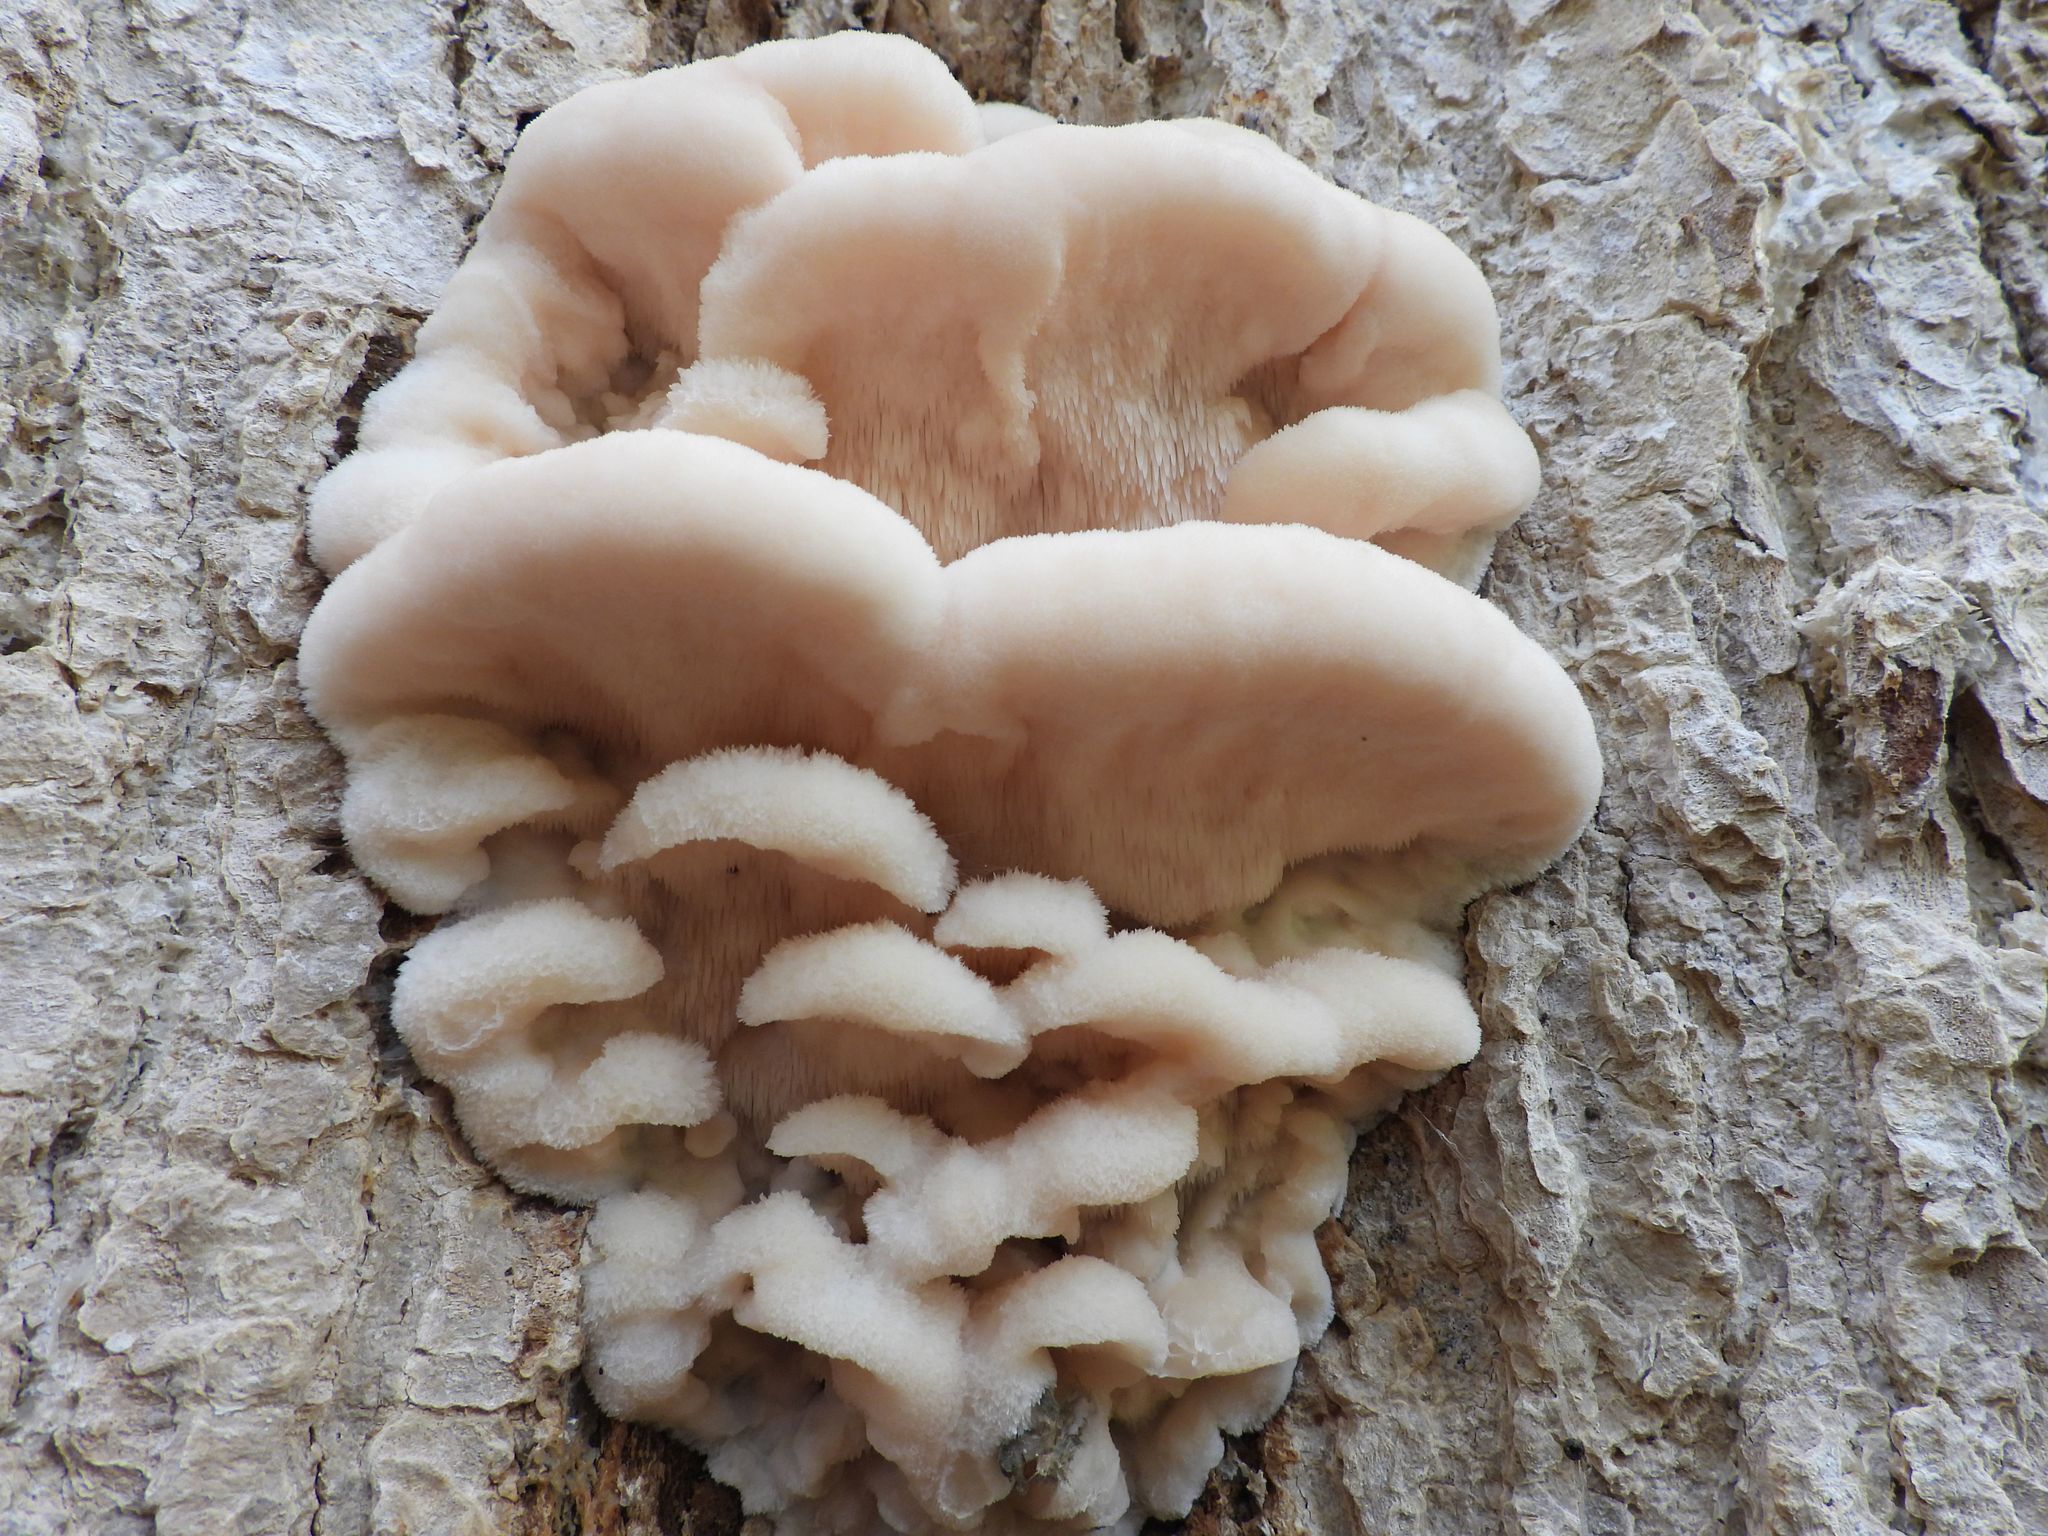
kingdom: Fungi
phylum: Basidiomycota
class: Agaricomycetes
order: Polyporales
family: Meruliaceae
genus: Climacodon
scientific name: Climacodon septentrionalis
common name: Northern tooth
